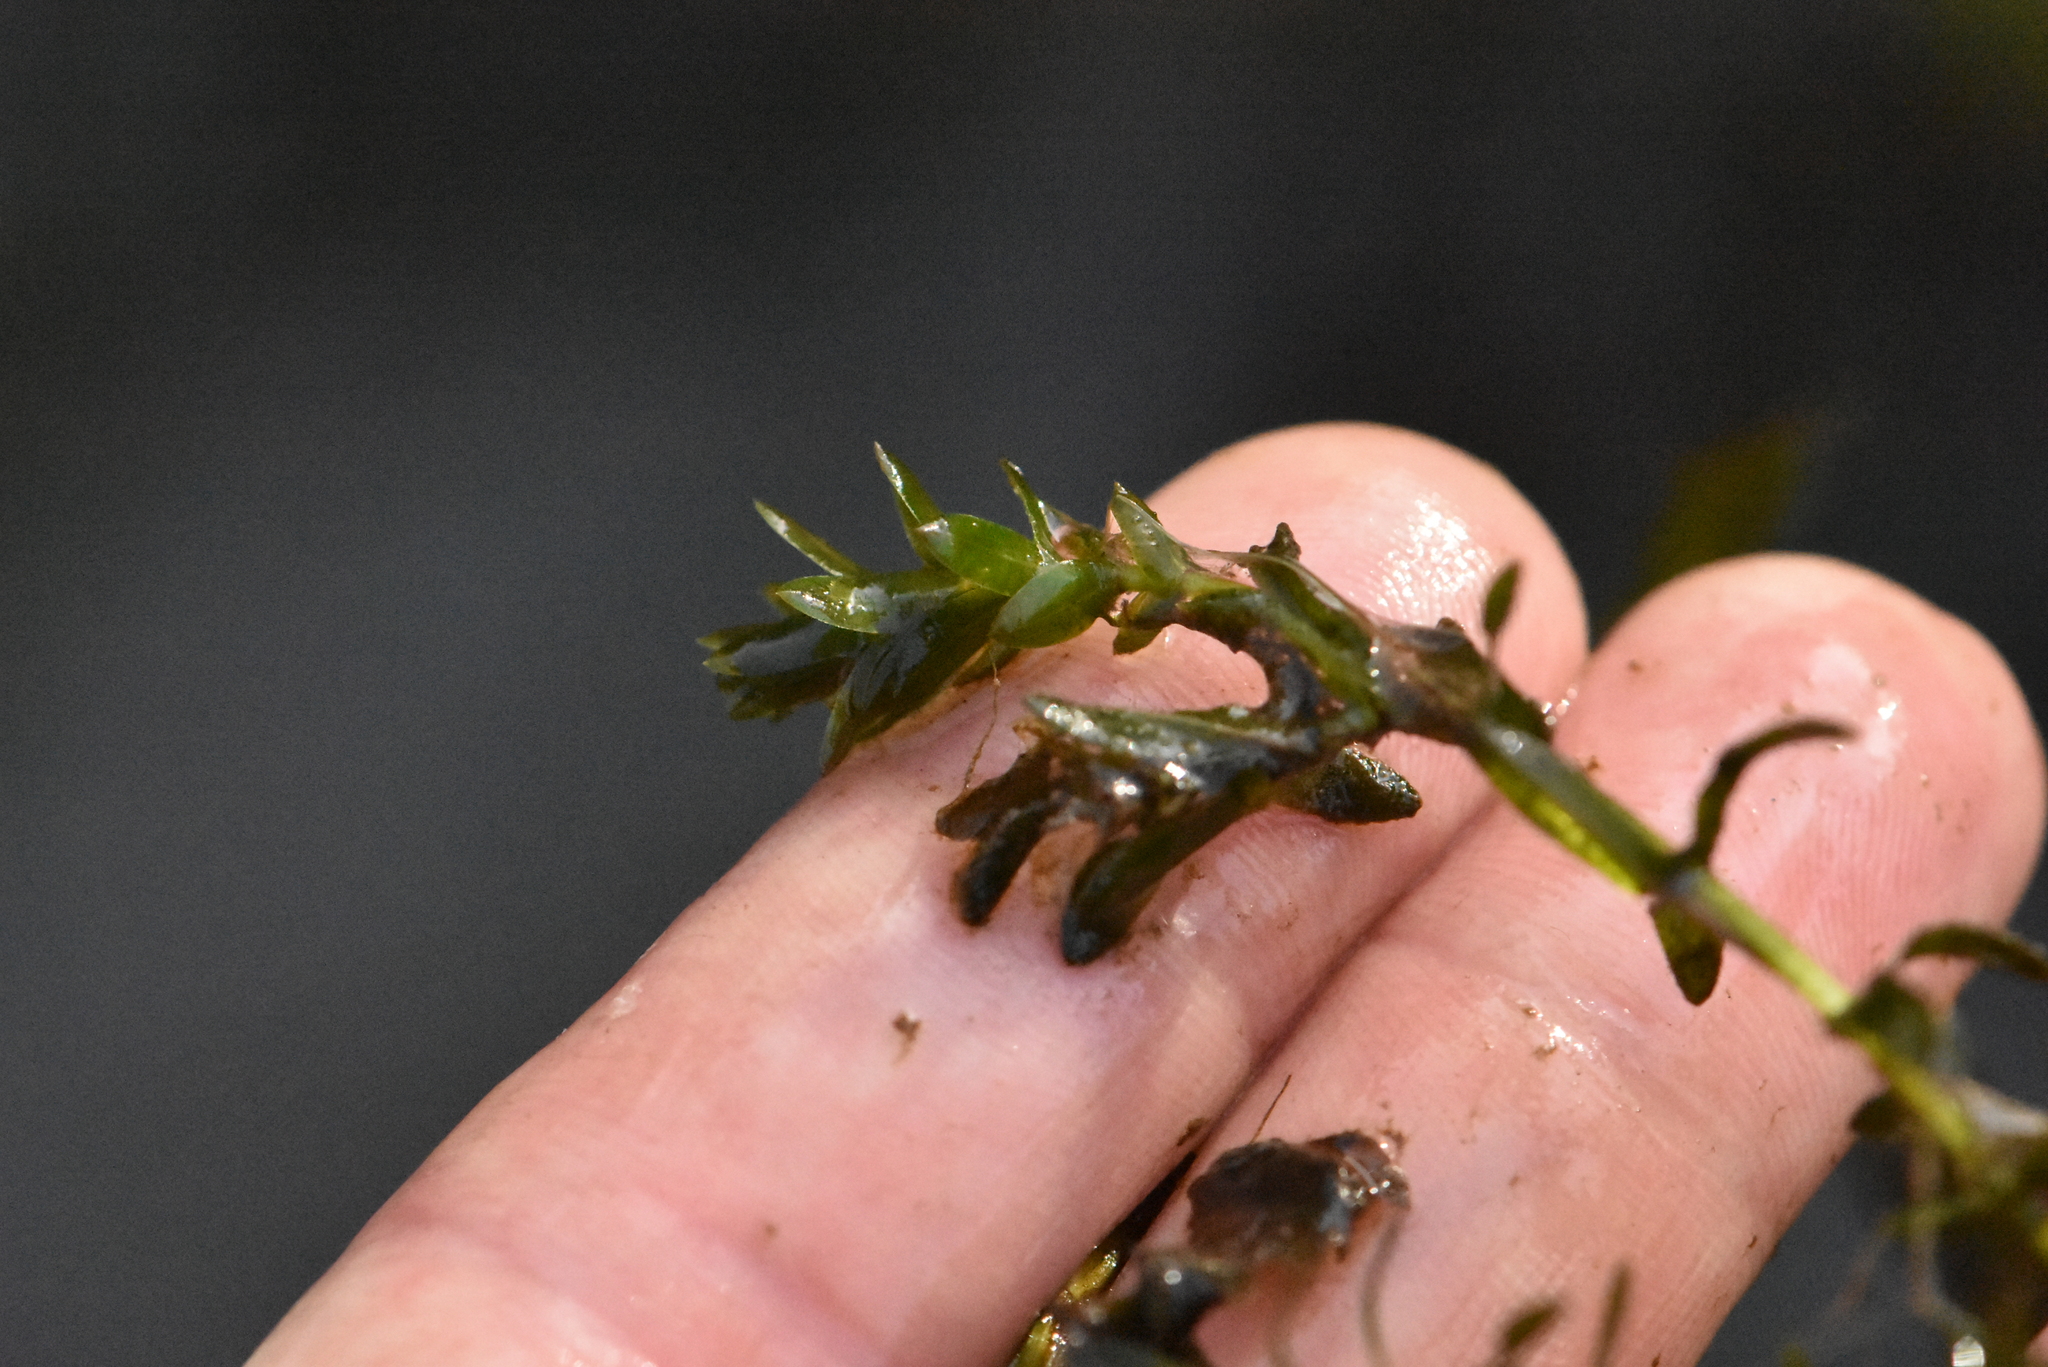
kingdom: Plantae
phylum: Tracheophyta
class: Liliopsida
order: Alismatales
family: Hydrocharitaceae
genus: Elodea
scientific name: Elodea canadensis
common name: Canadian waterweed
